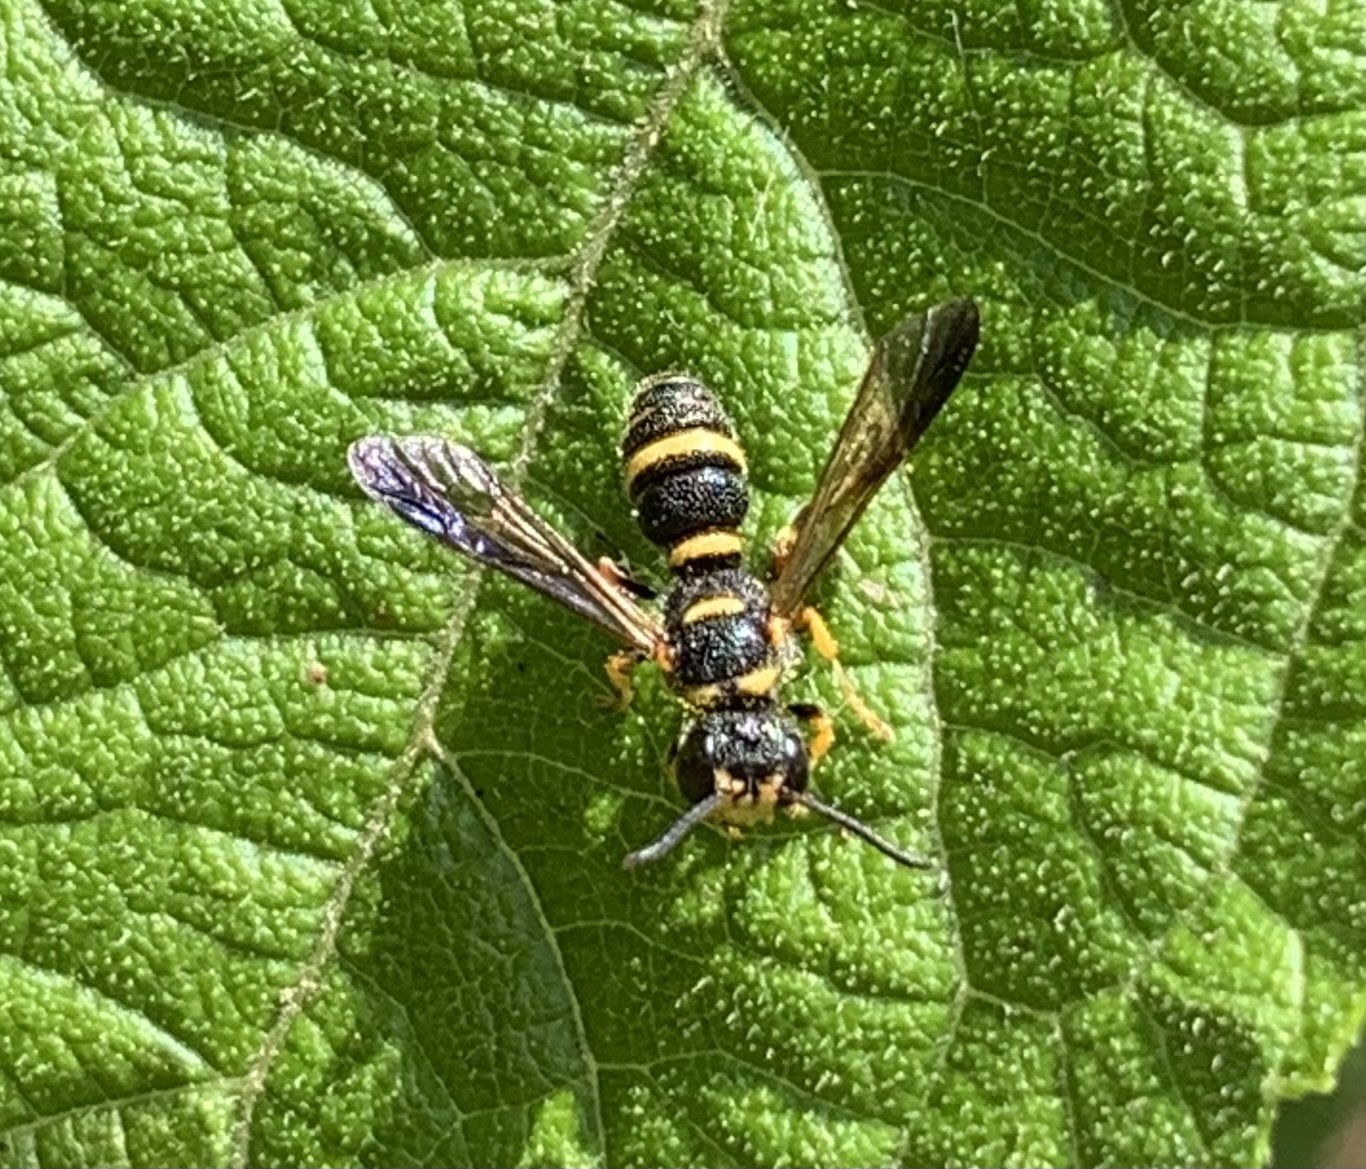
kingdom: Animalia
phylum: Arthropoda
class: Insecta
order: Hymenoptera
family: Crabronidae
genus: Cerceris
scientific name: Cerceris insolita
